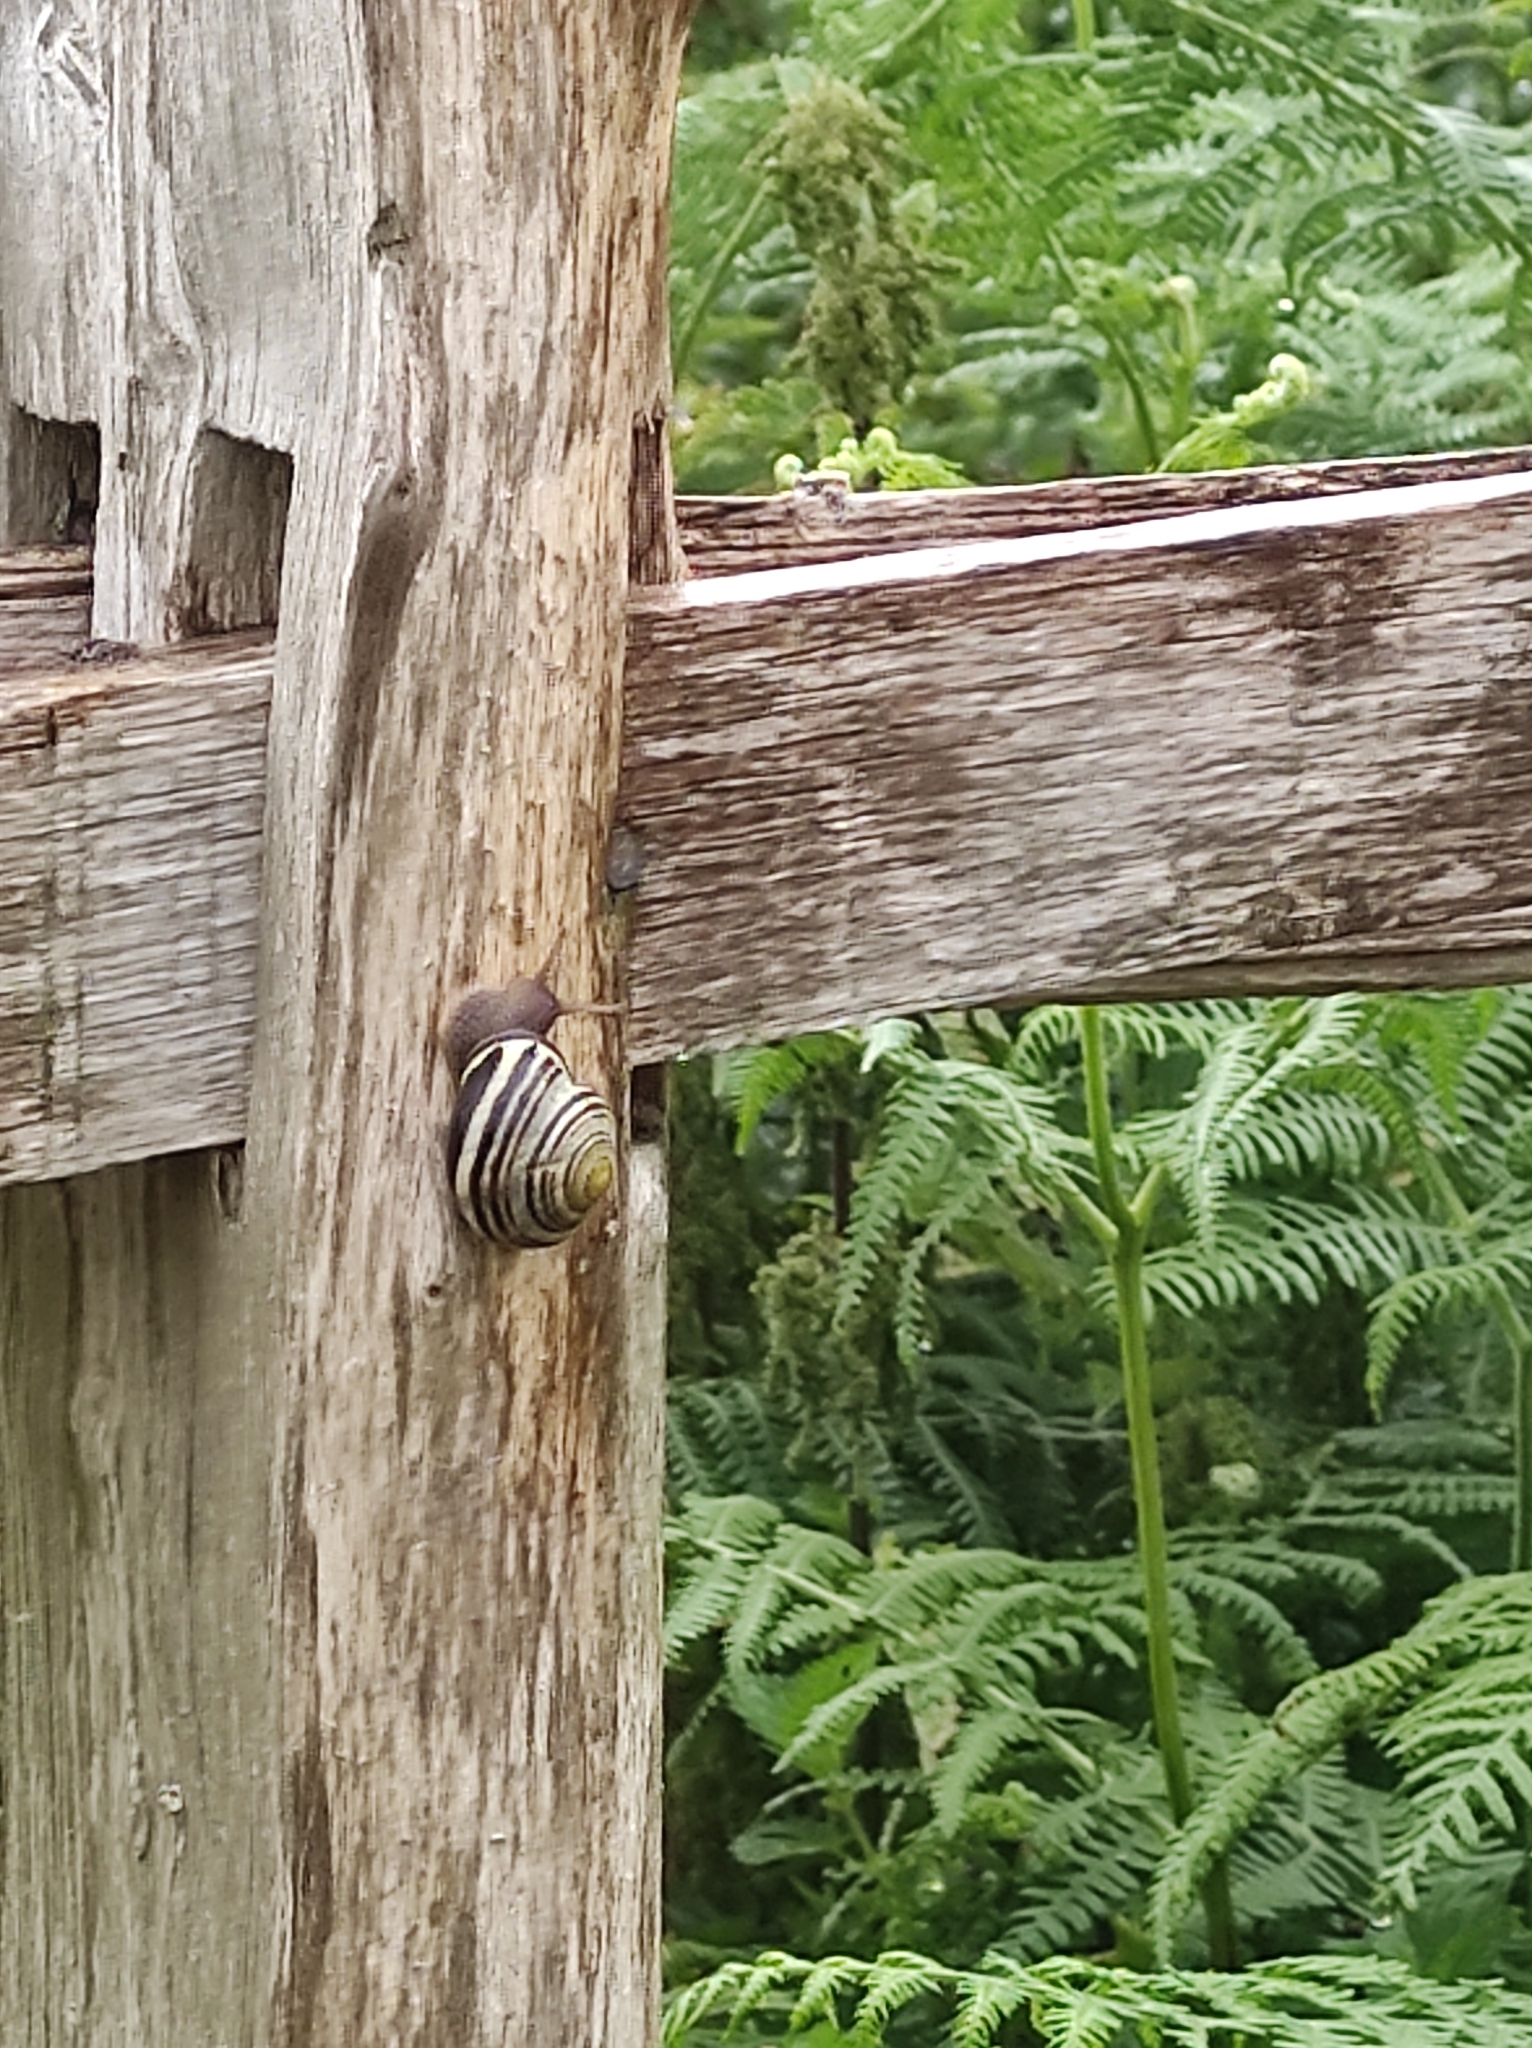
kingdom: Animalia
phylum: Mollusca
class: Gastropoda
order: Stylommatophora
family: Helicidae
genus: Cepaea
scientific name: Cepaea nemoralis
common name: Grovesnail
